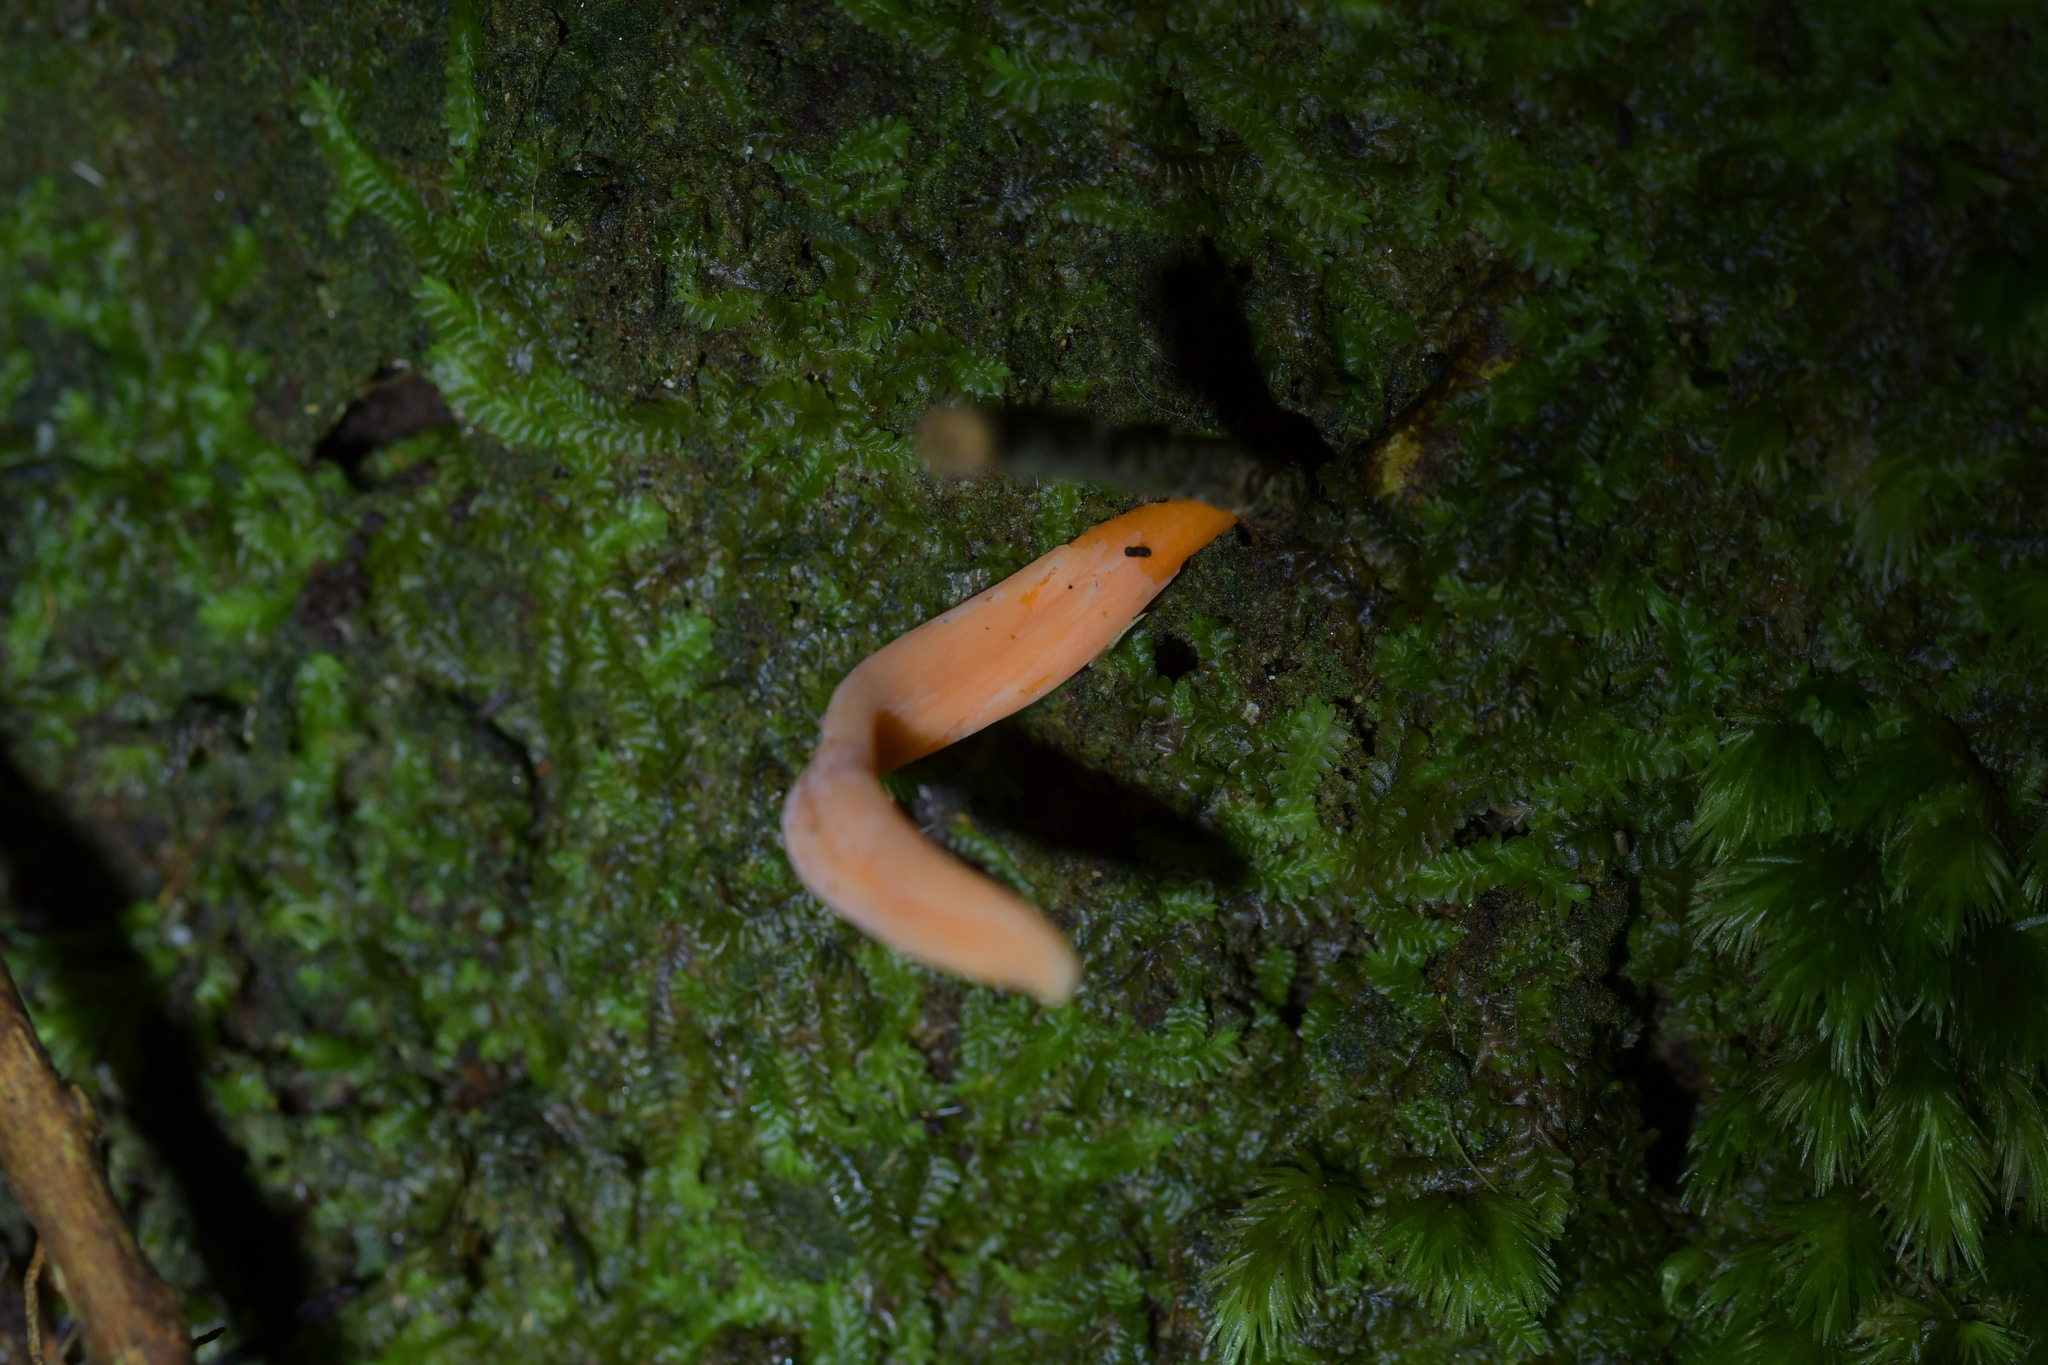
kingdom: Fungi
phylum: Basidiomycota
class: Agaricomycetes
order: Agaricales
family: Clavariaceae
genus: Clavulinopsis
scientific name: Clavulinopsis sulcata
